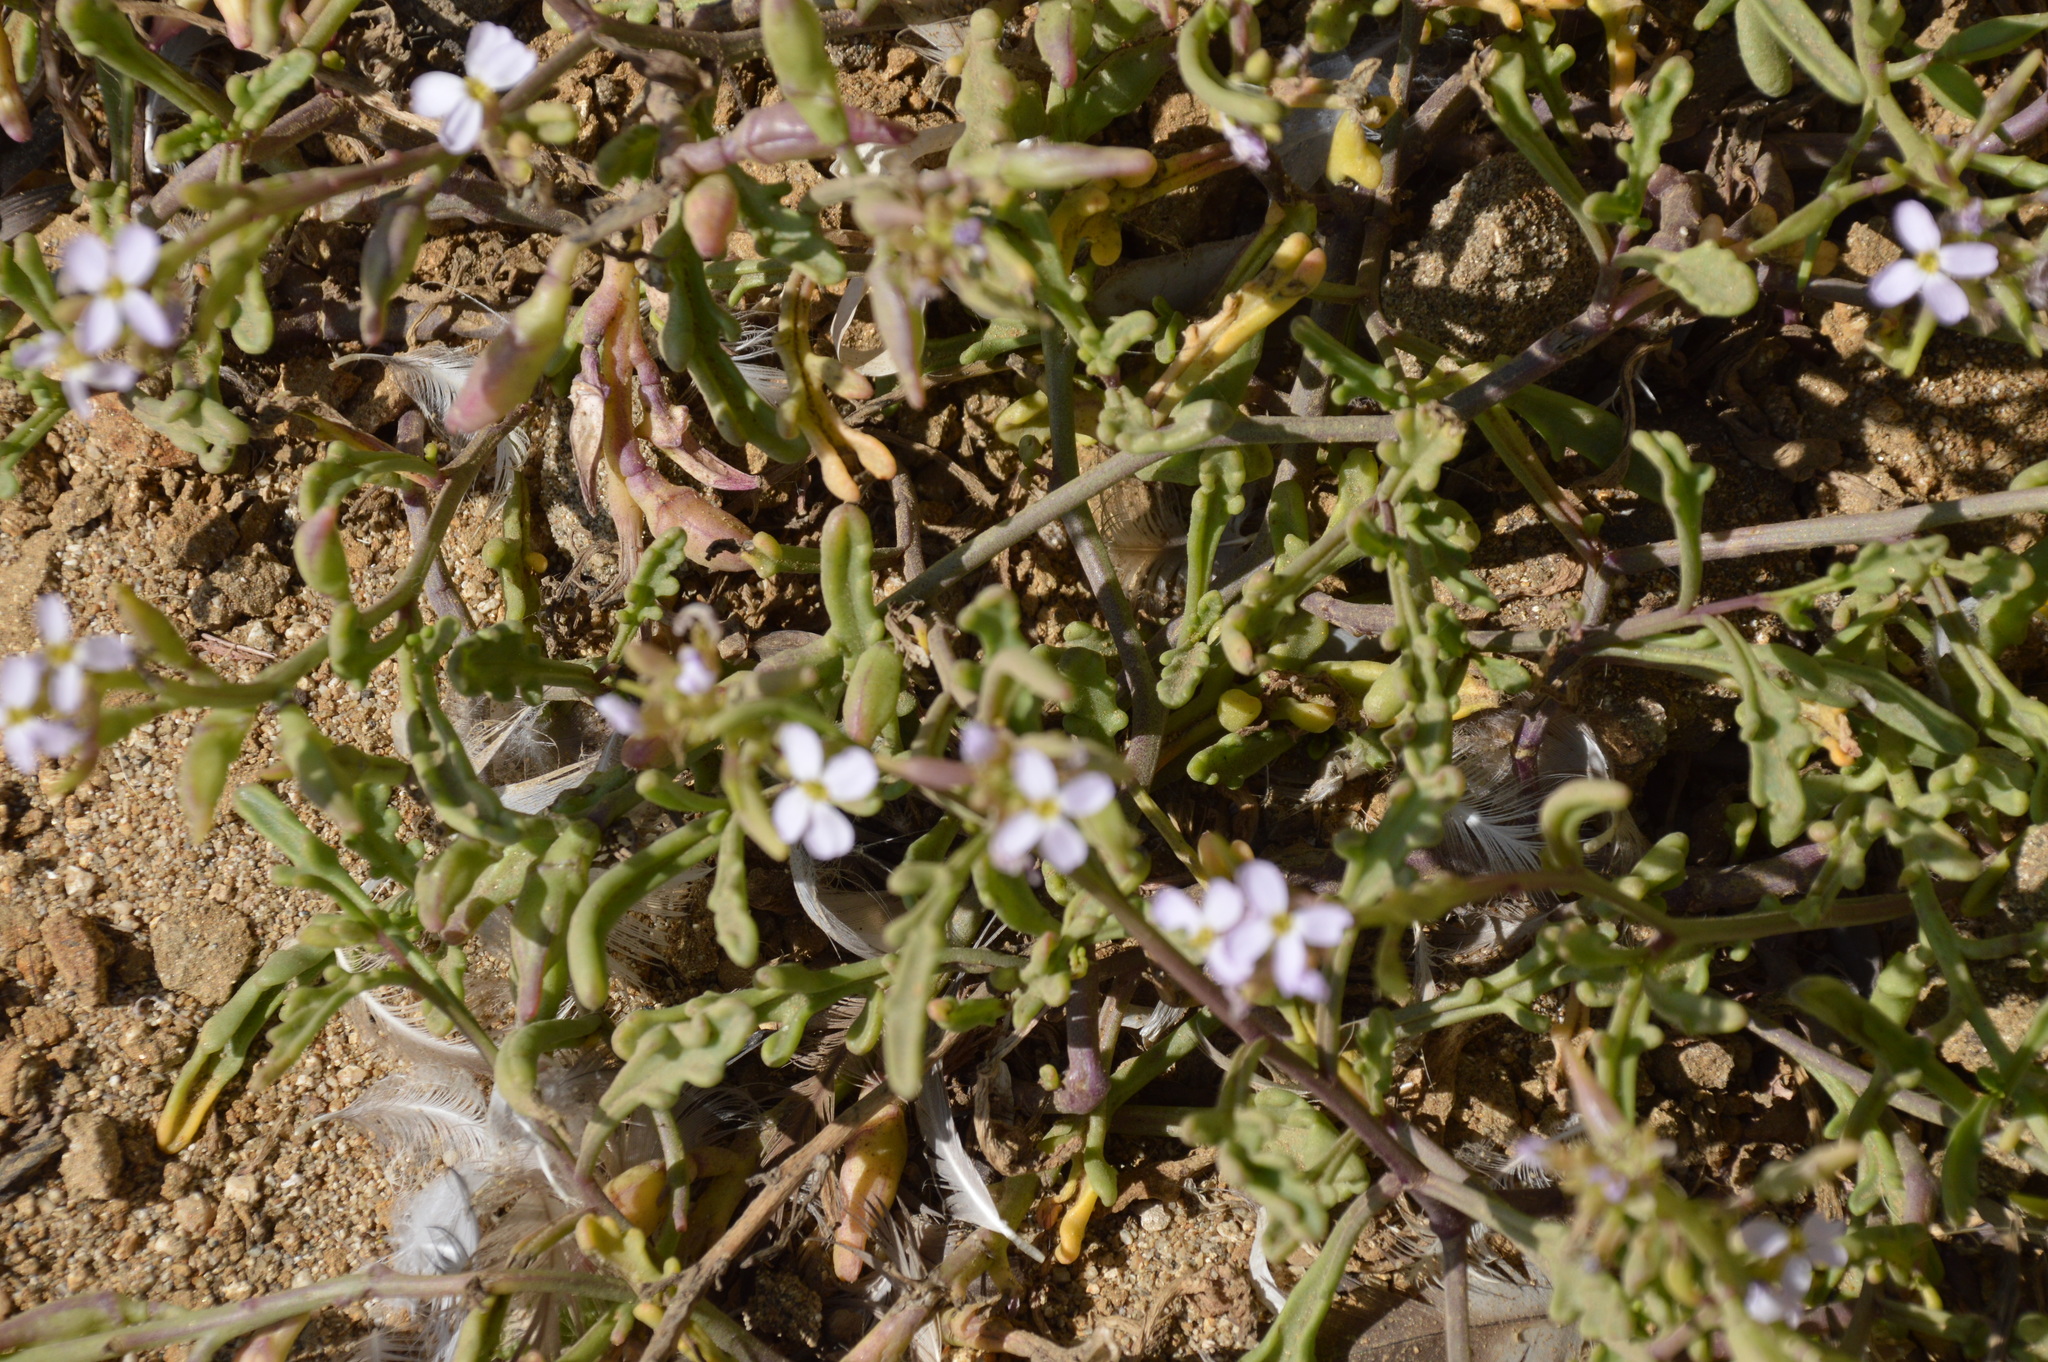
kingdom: Plantae
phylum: Tracheophyta
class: Magnoliopsida
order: Brassicales
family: Brassicaceae
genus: Cakile
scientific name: Cakile maritima
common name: Sea rocket
